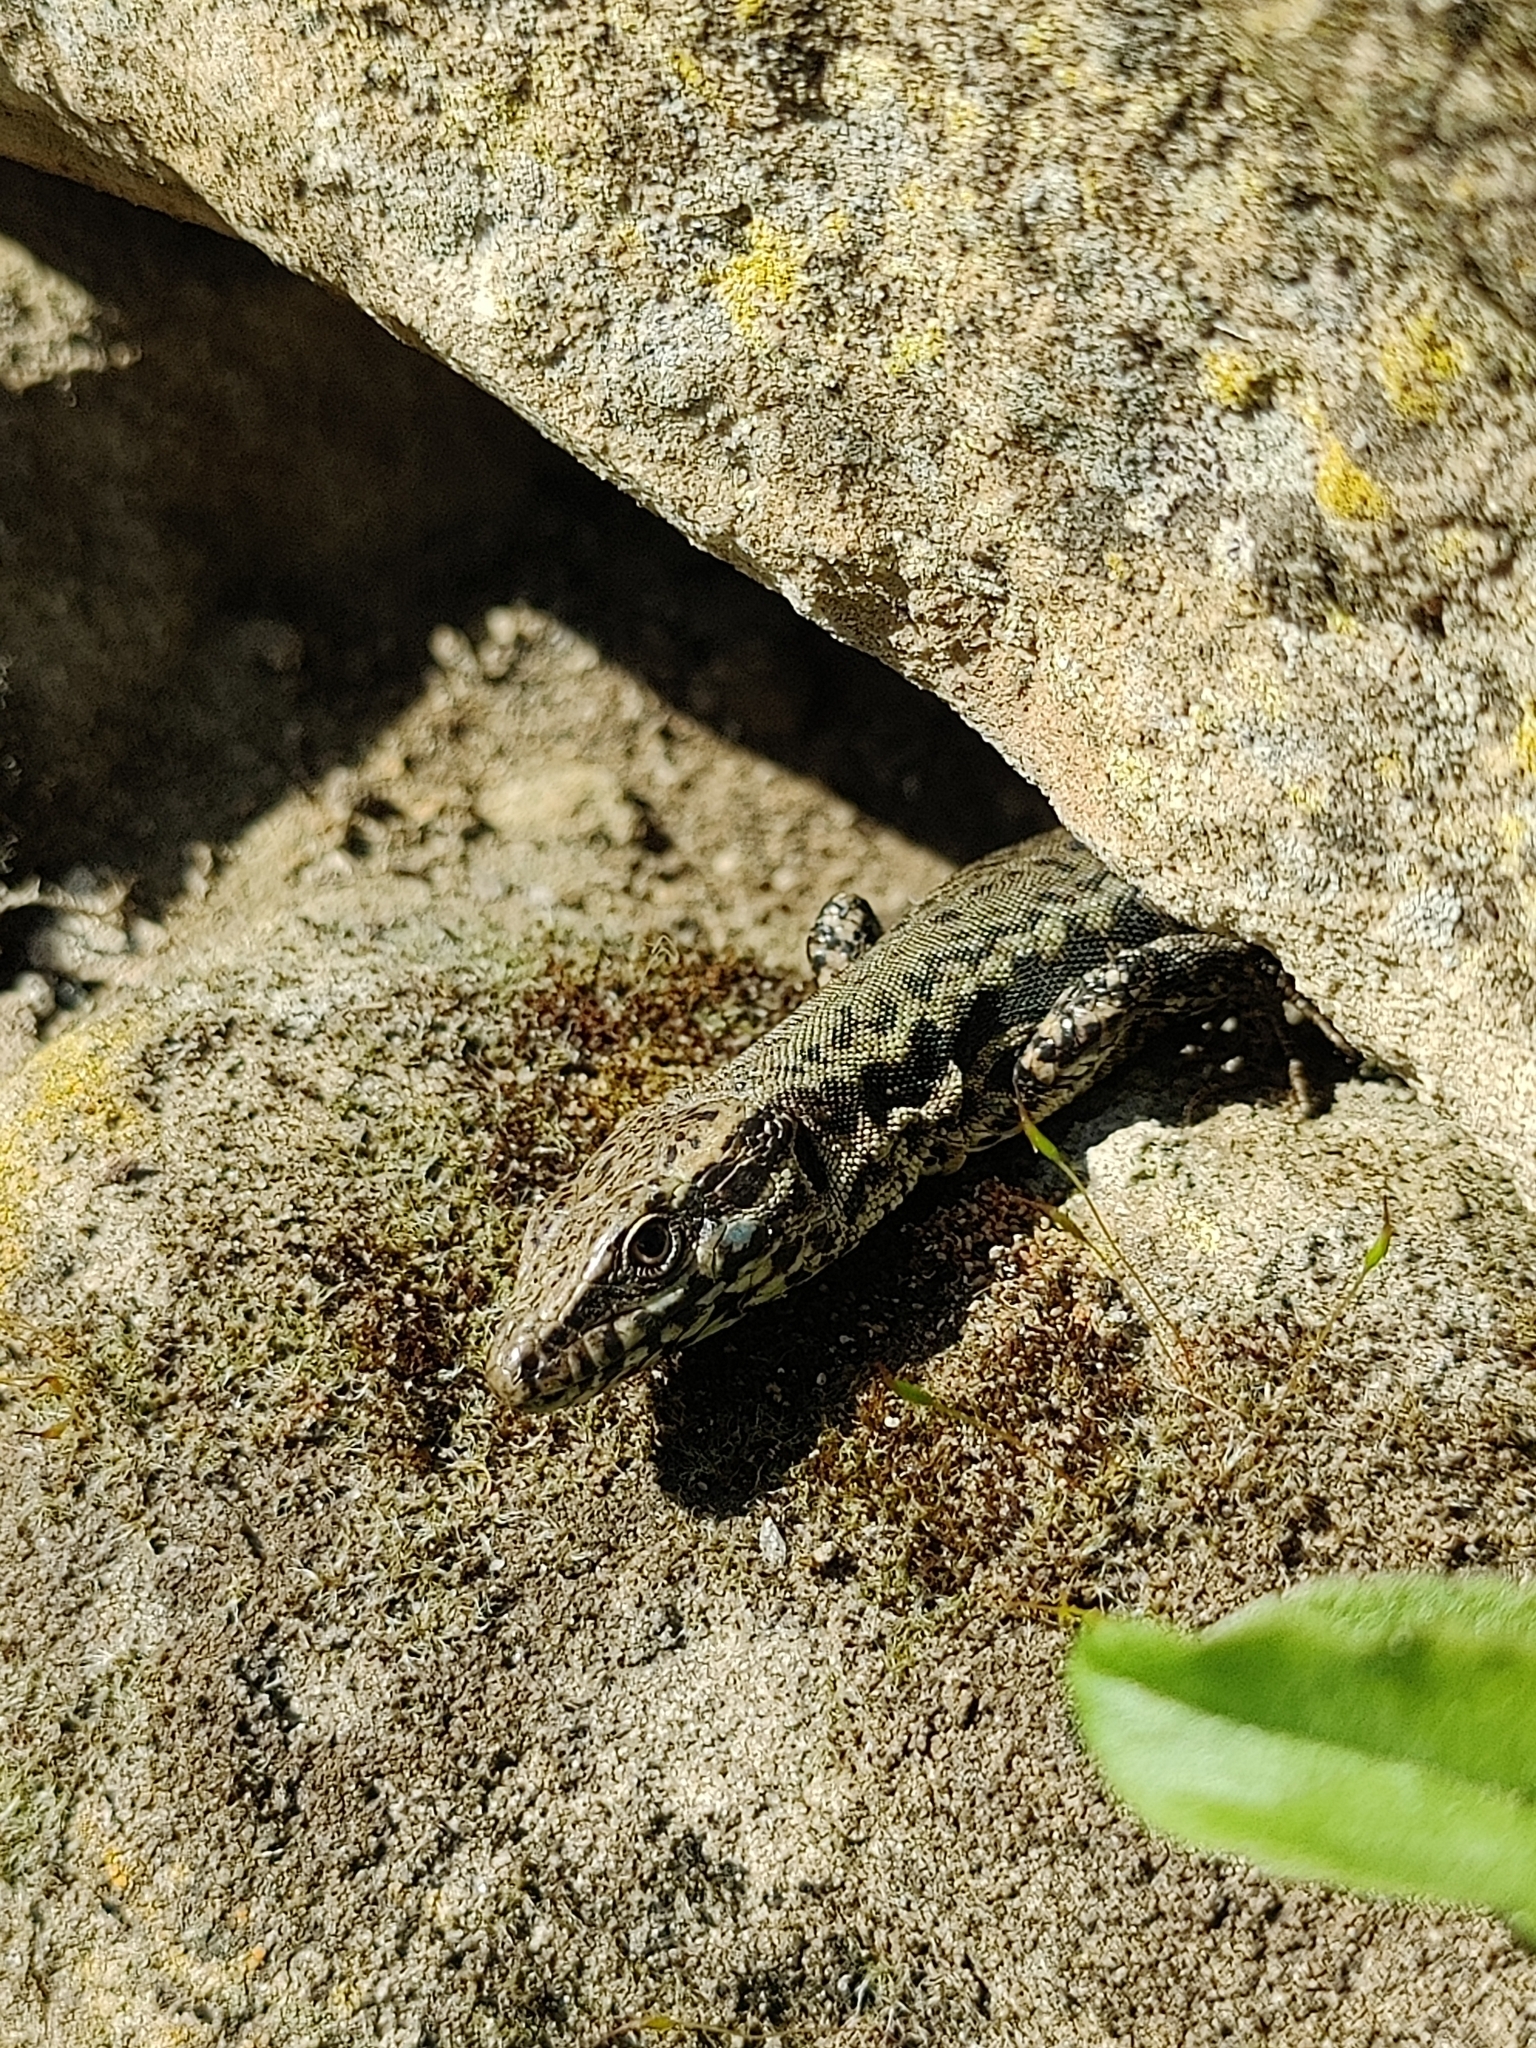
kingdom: Animalia
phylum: Chordata
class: Squamata
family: Lacertidae
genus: Podarcis
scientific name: Podarcis muralis
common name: Common wall lizard
